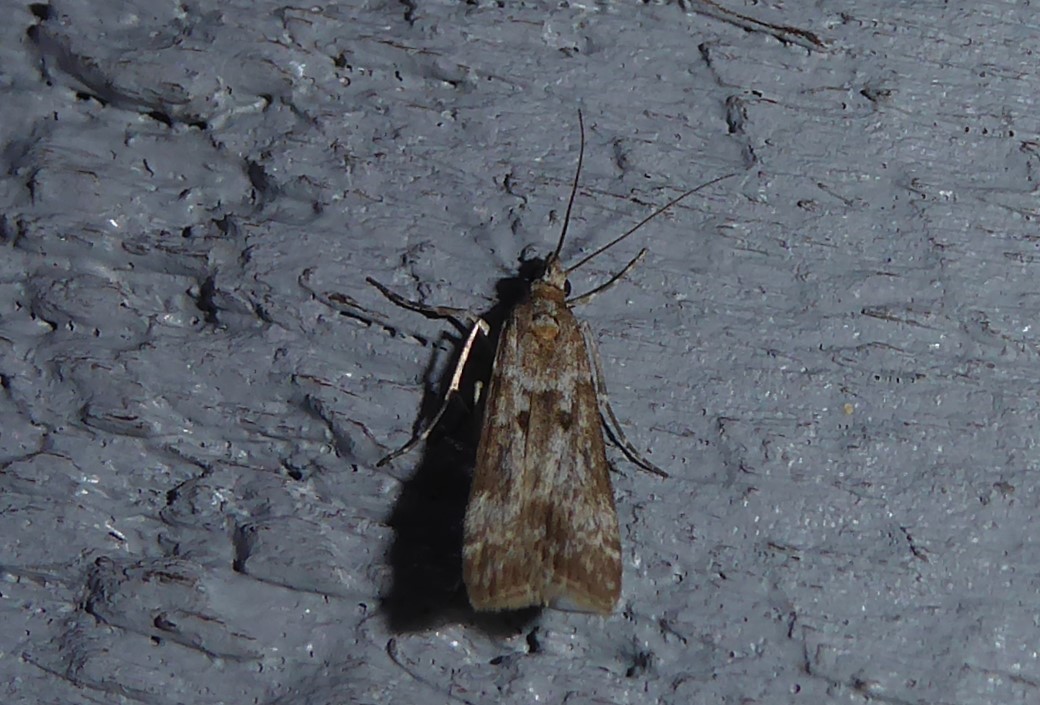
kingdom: Animalia
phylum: Arthropoda
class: Insecta
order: Lepidoptera
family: Crambidae
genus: Eudonia
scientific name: Eudonia leptalea
